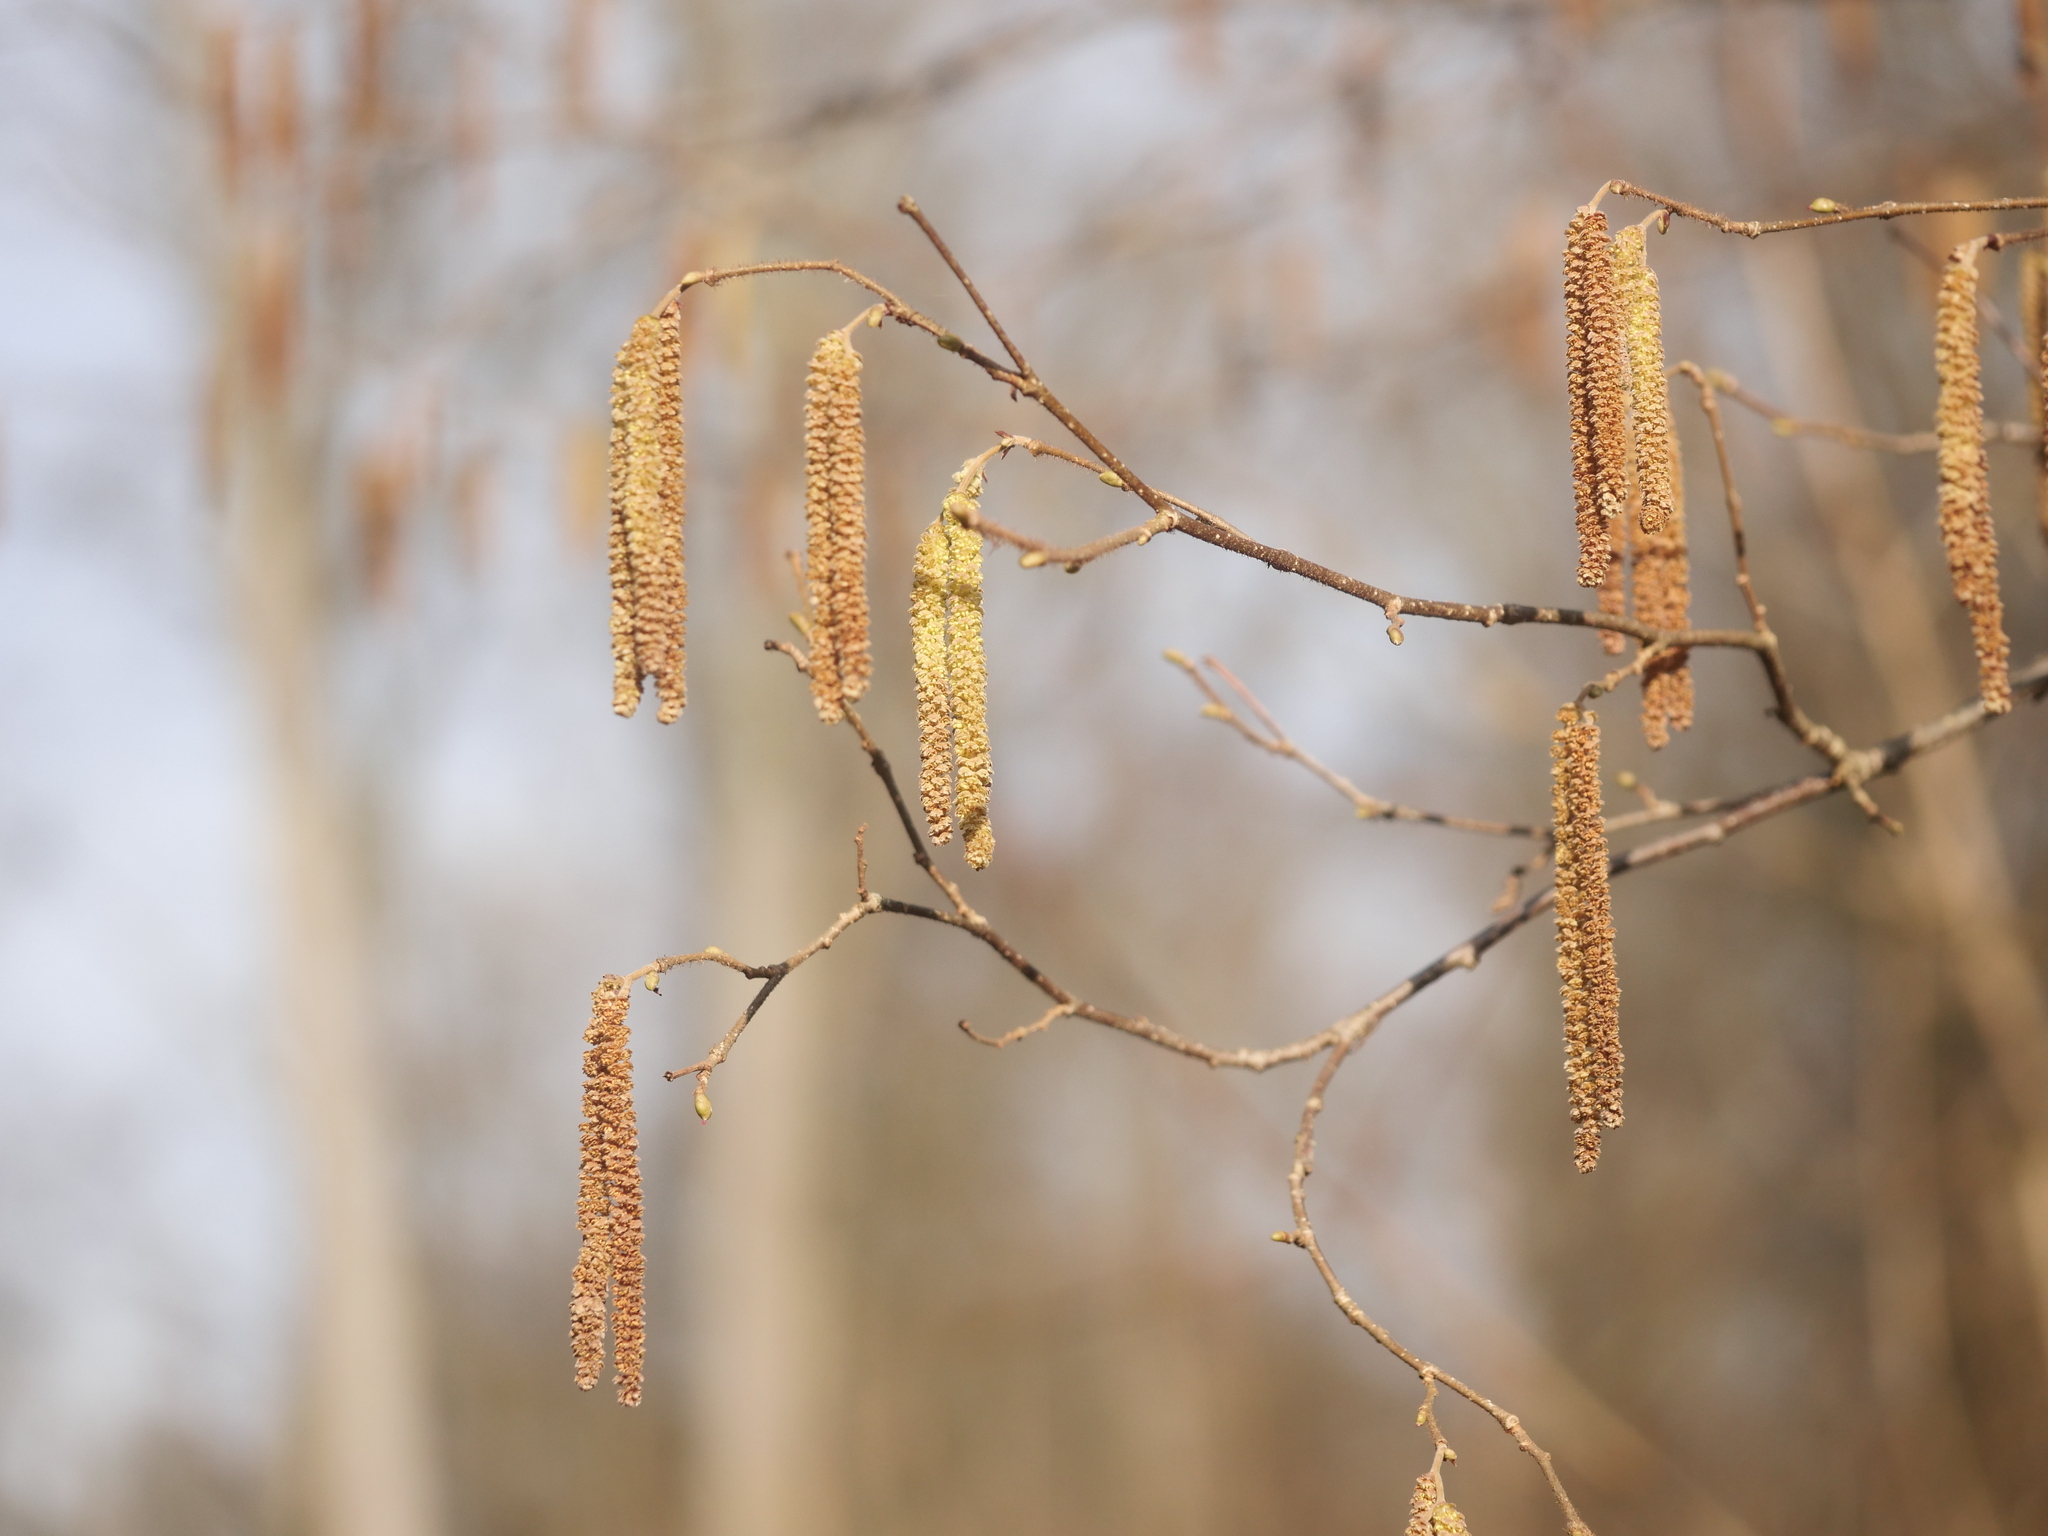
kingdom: Plantae
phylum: Tracheophyta
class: Magnoliopsida
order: Fagales
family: Betulaceae
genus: Corylus
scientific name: Corylus avellana
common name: European hazel
